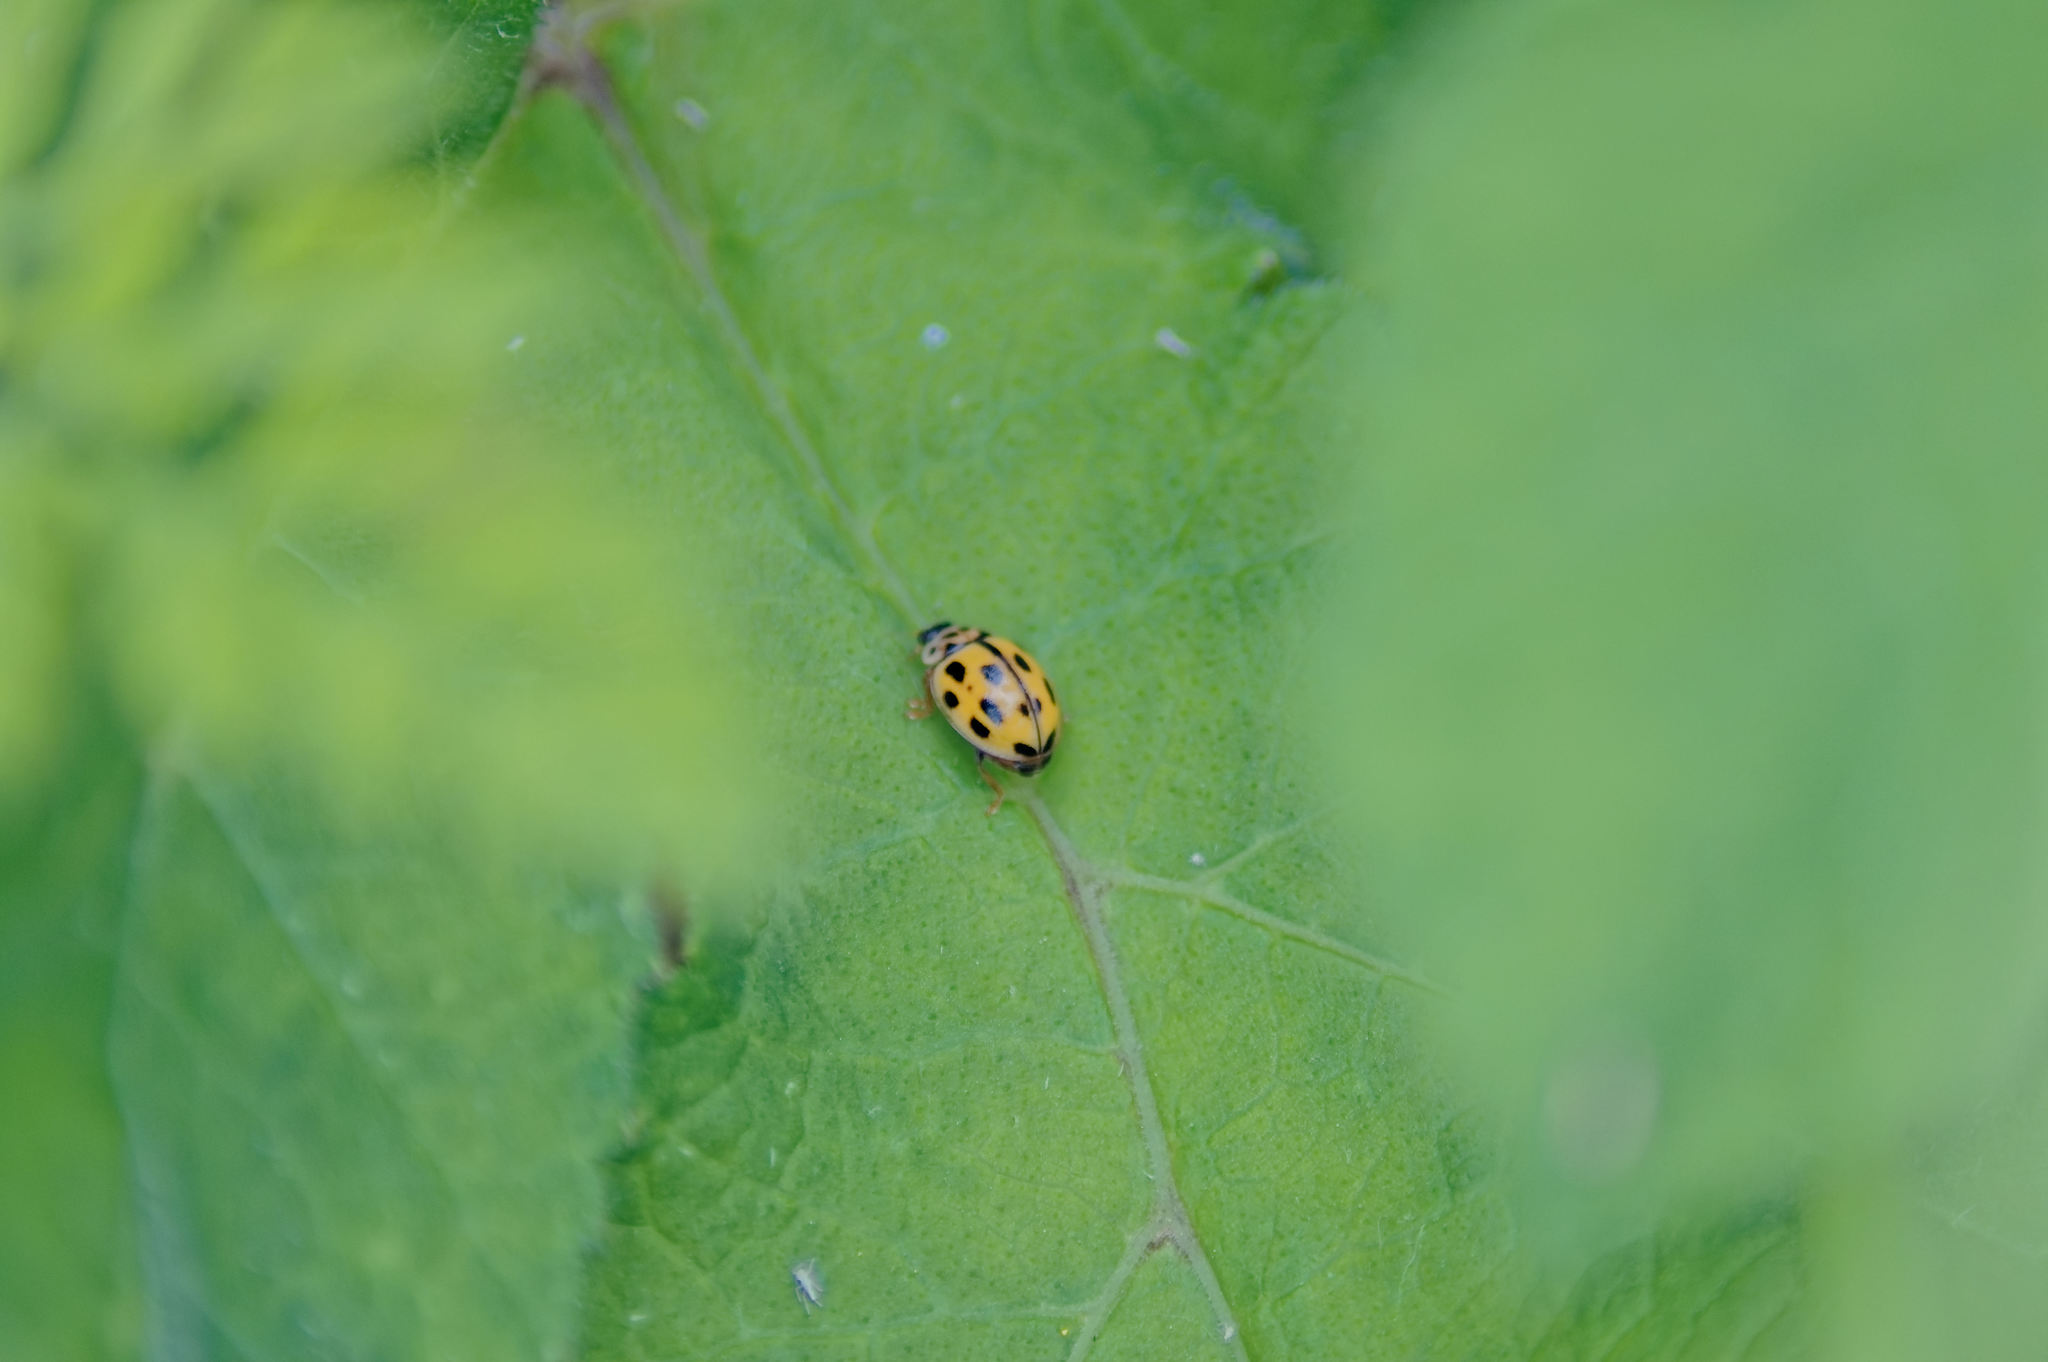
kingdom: Animalia
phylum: Arthropoda
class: Insecta
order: Coleoptera
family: Coccinellidae
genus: Propylaea
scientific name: Propylaea quatuordecimpunctata
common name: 14-spotted ladybird beetle
